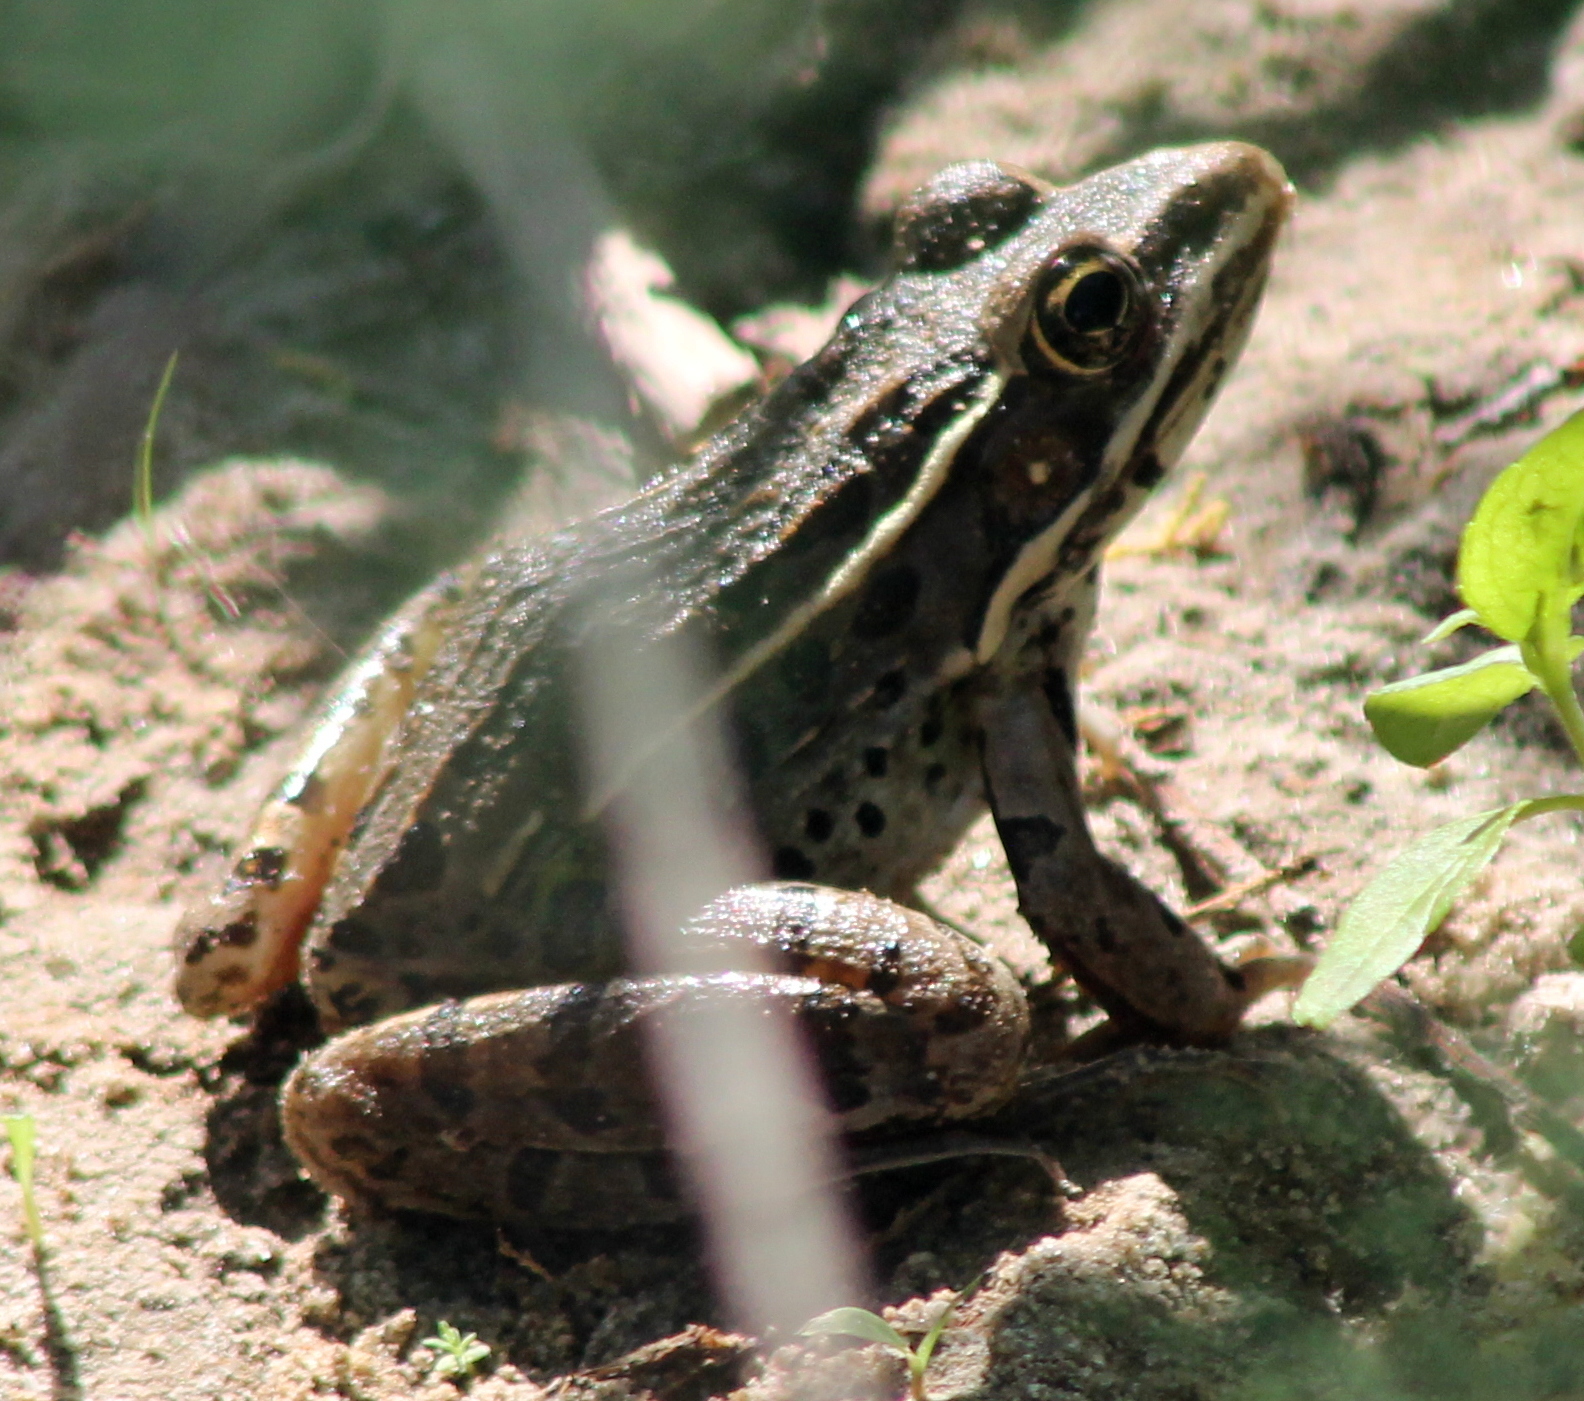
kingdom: Animalia
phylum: Chordata
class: Amphibia
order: Anura
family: Ranidae
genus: Lithobates
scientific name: Lithobates blairi
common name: Plains leopard frog
